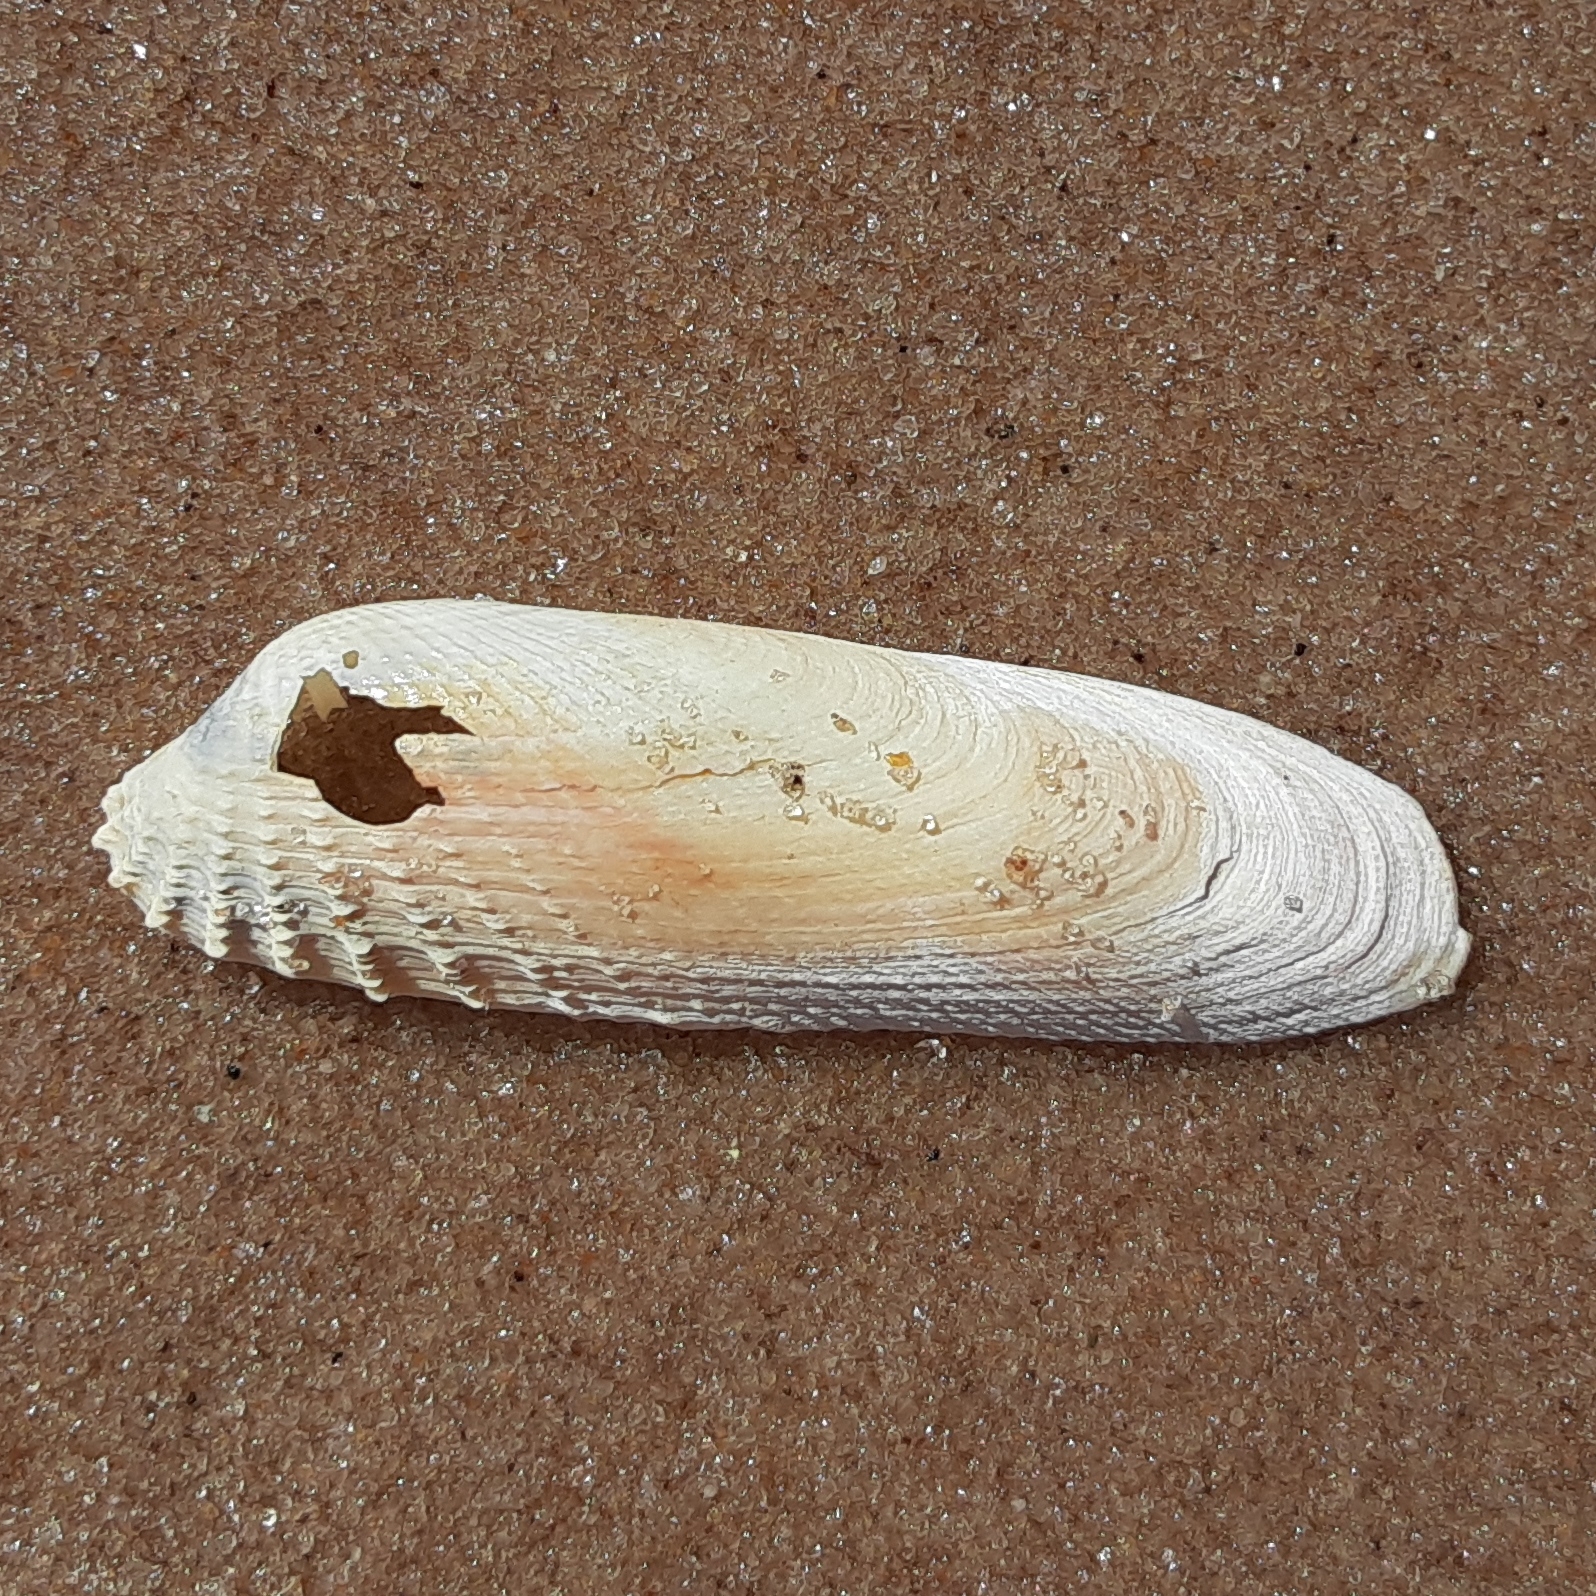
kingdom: Animalia
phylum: Mollusca
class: Bivalvia
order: Venerida
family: Veneridae
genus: Petricolaria
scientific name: Petricolaria pholadiformis
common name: American piddock
